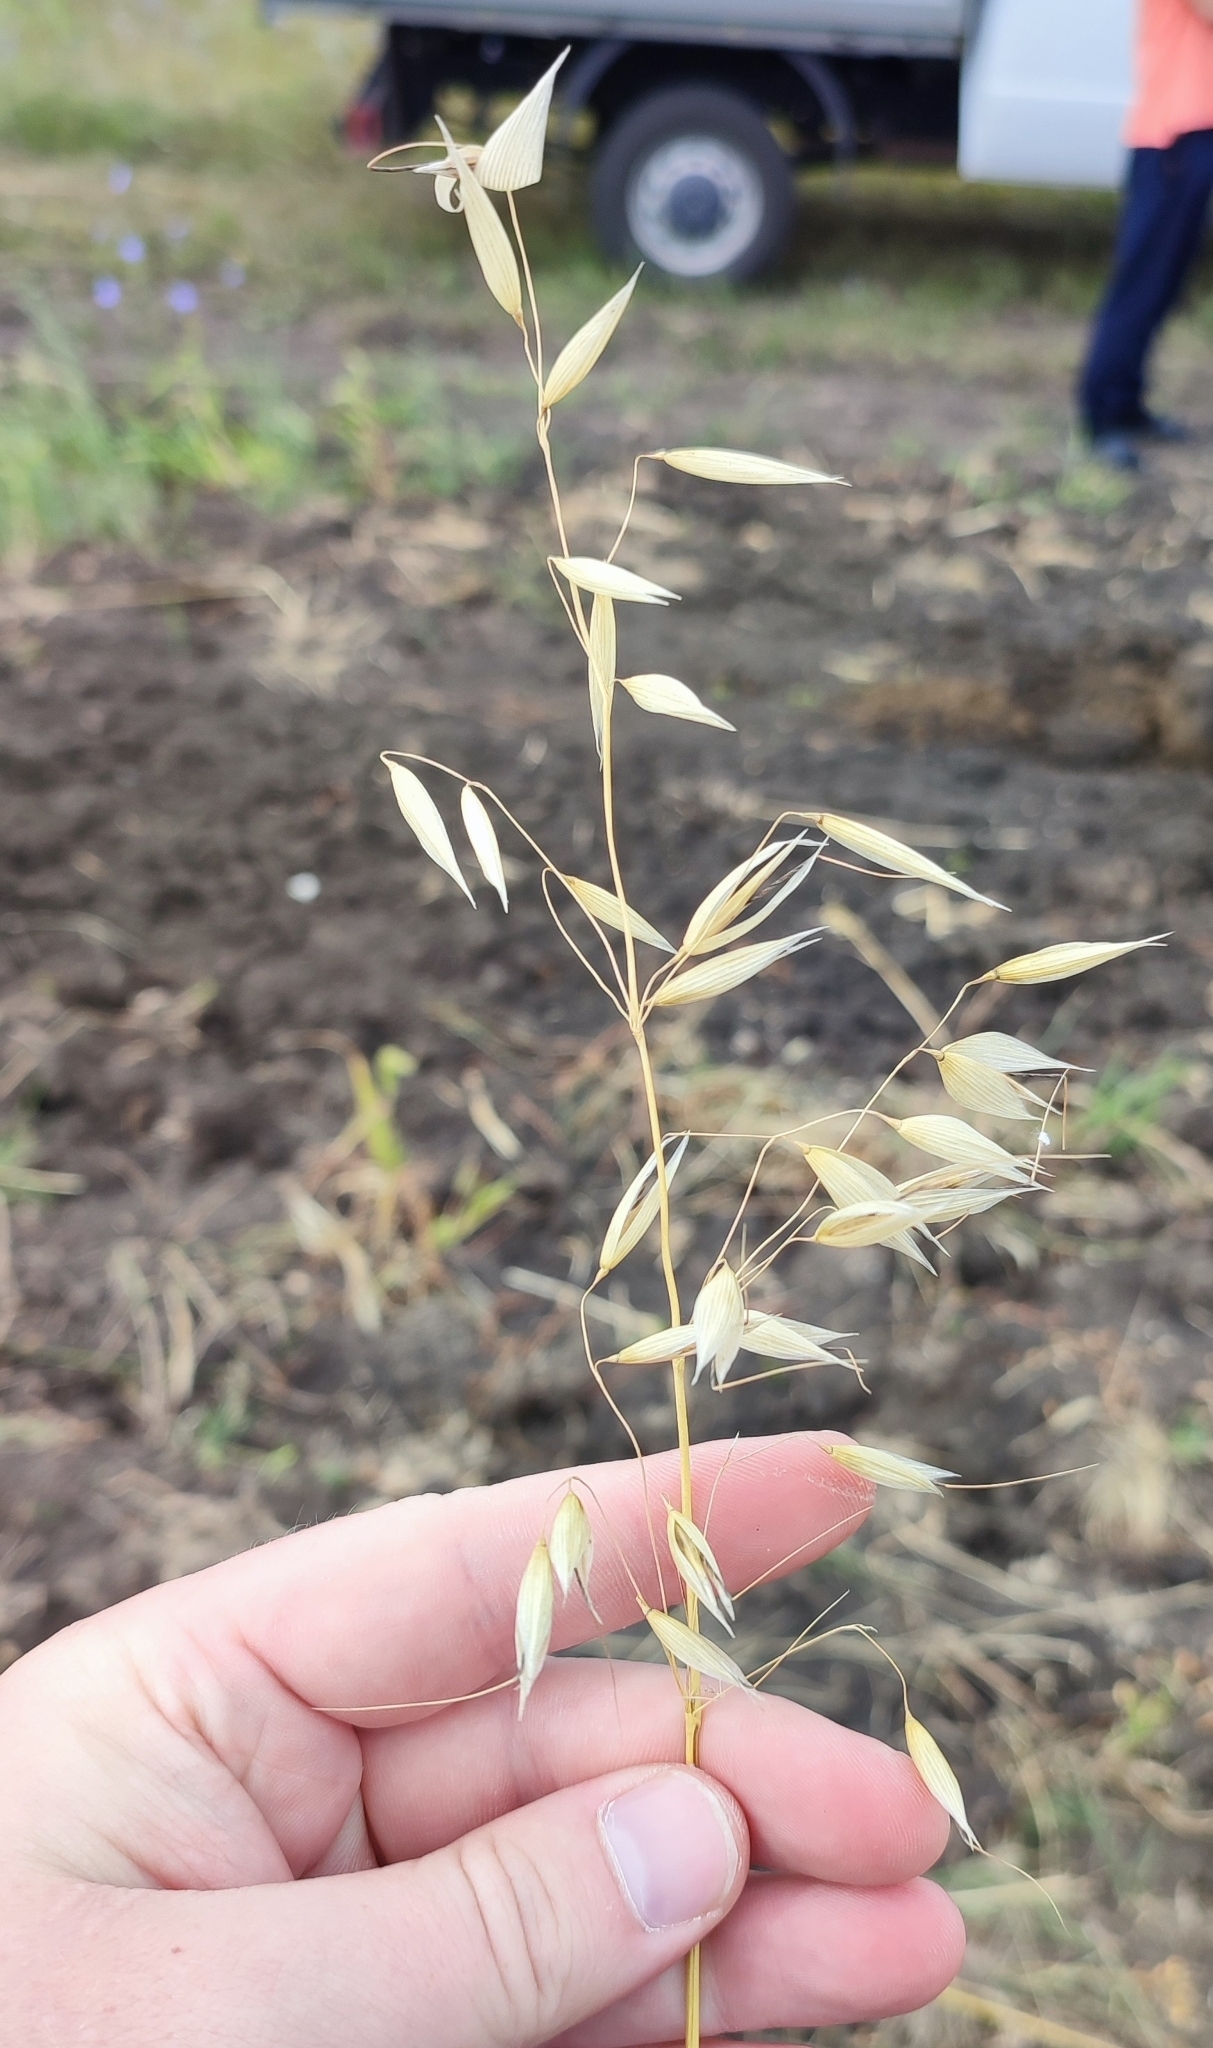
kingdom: Plantae
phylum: Tracheophyta
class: Liliopsida
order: Poales
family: Poaceae
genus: Avena
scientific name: Avena fatua
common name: Wild oat
